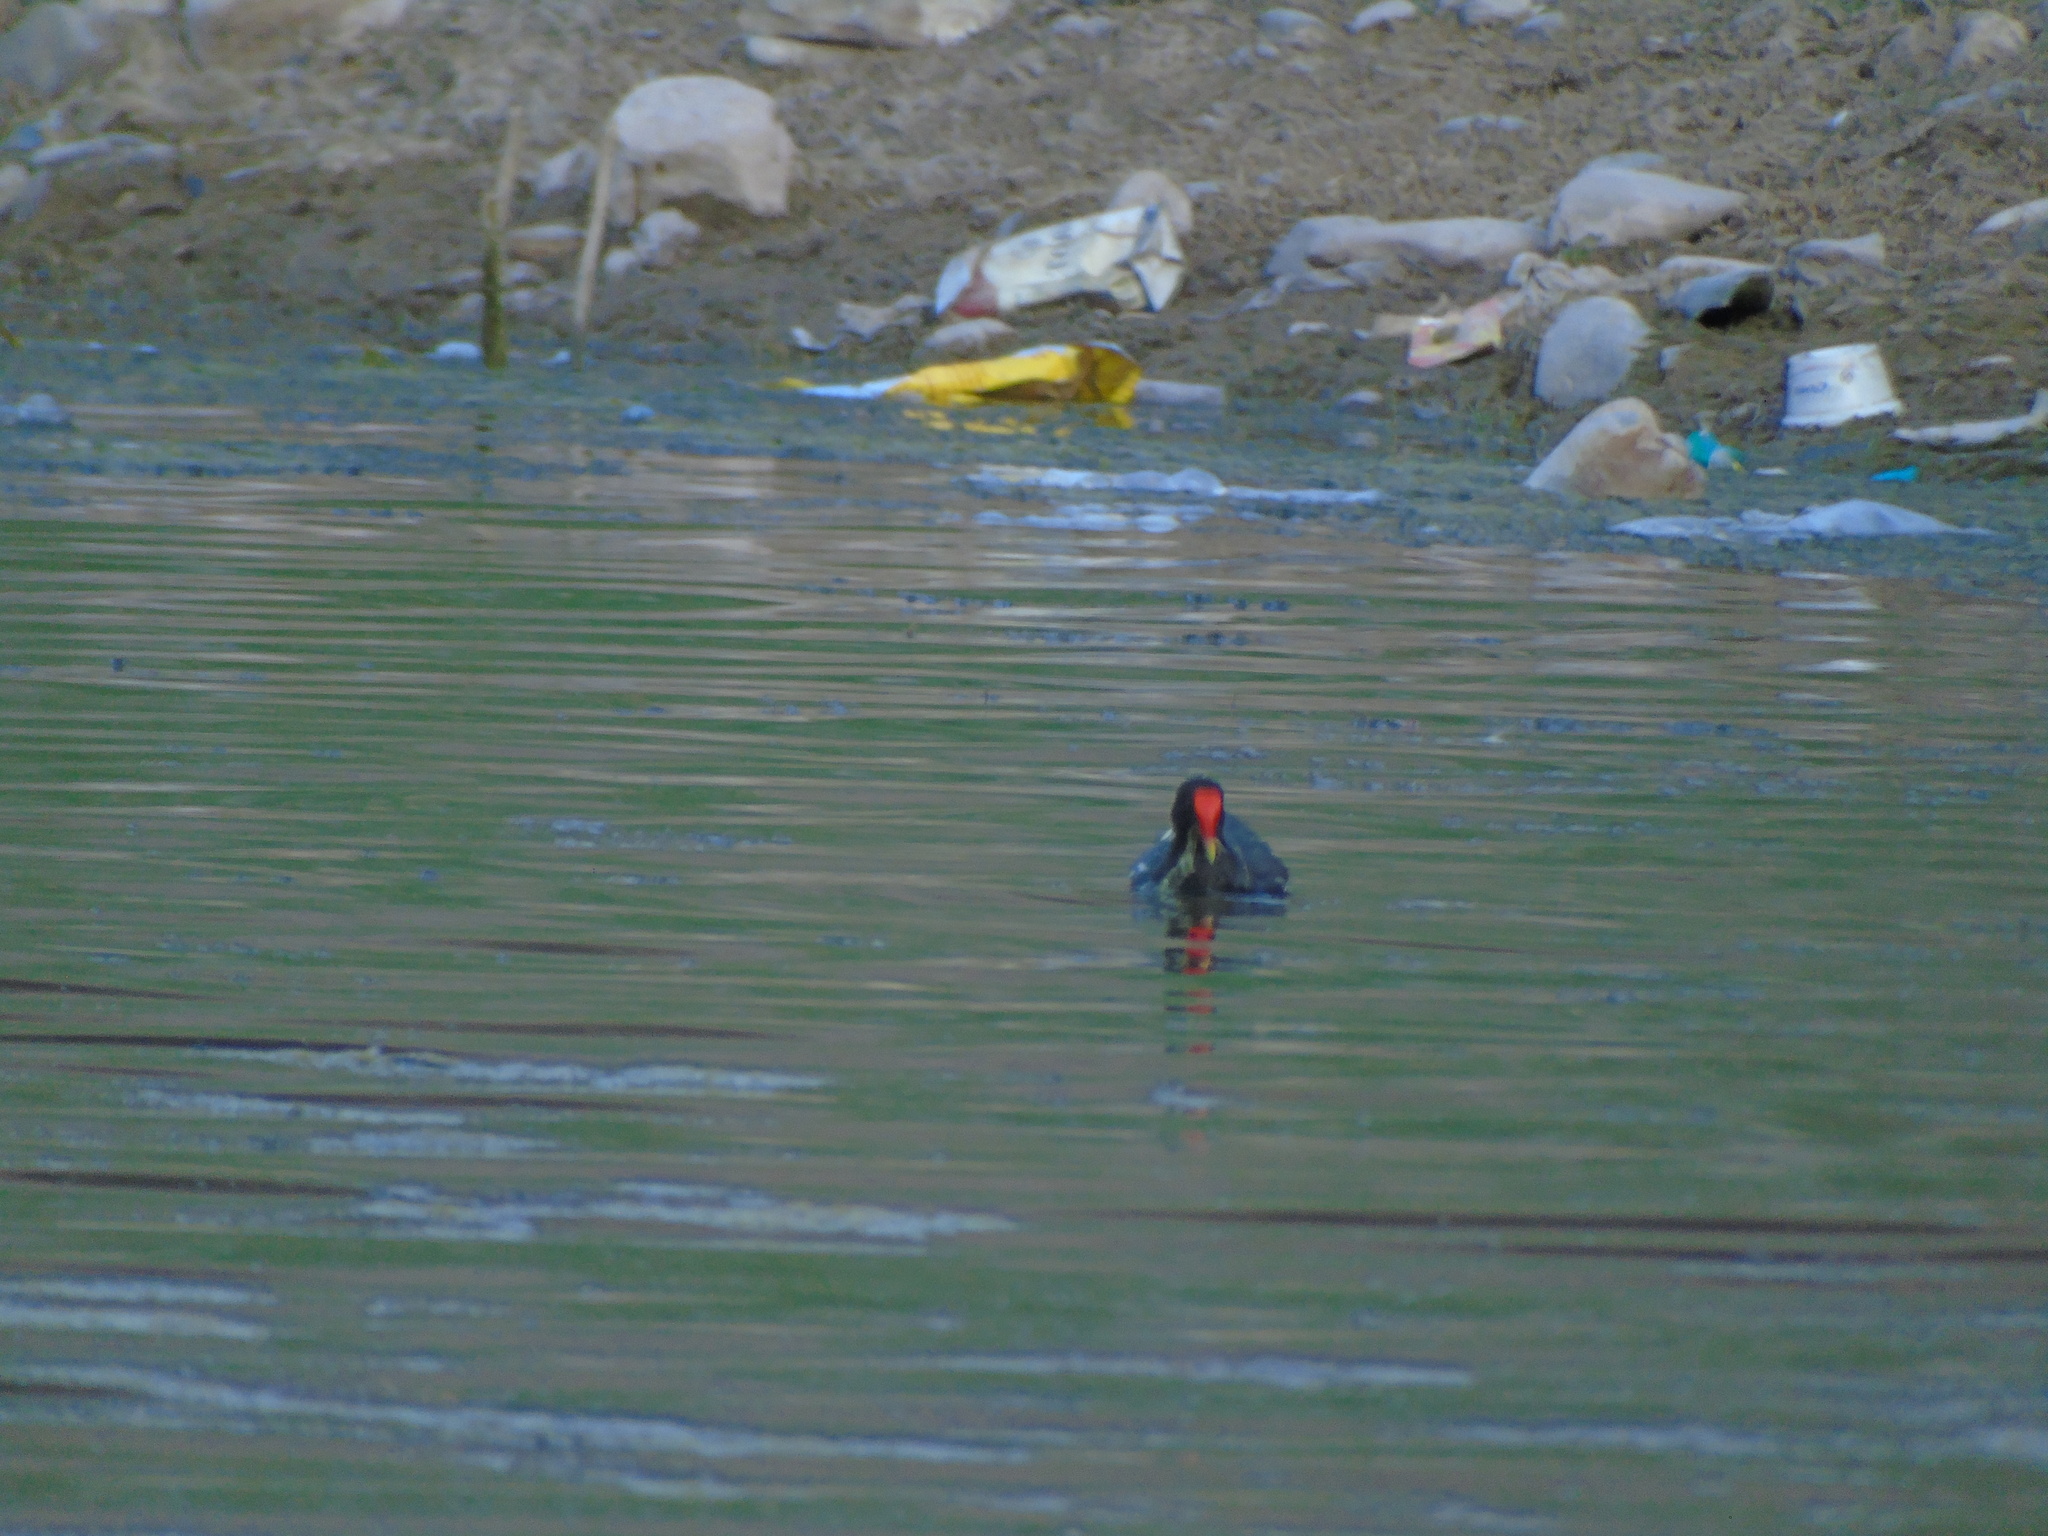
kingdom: Animalia
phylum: Chordata
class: Aves
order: Gruiformes
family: Rallidae
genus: Gallinula
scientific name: Gallinula chloropus
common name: Common moorhen
